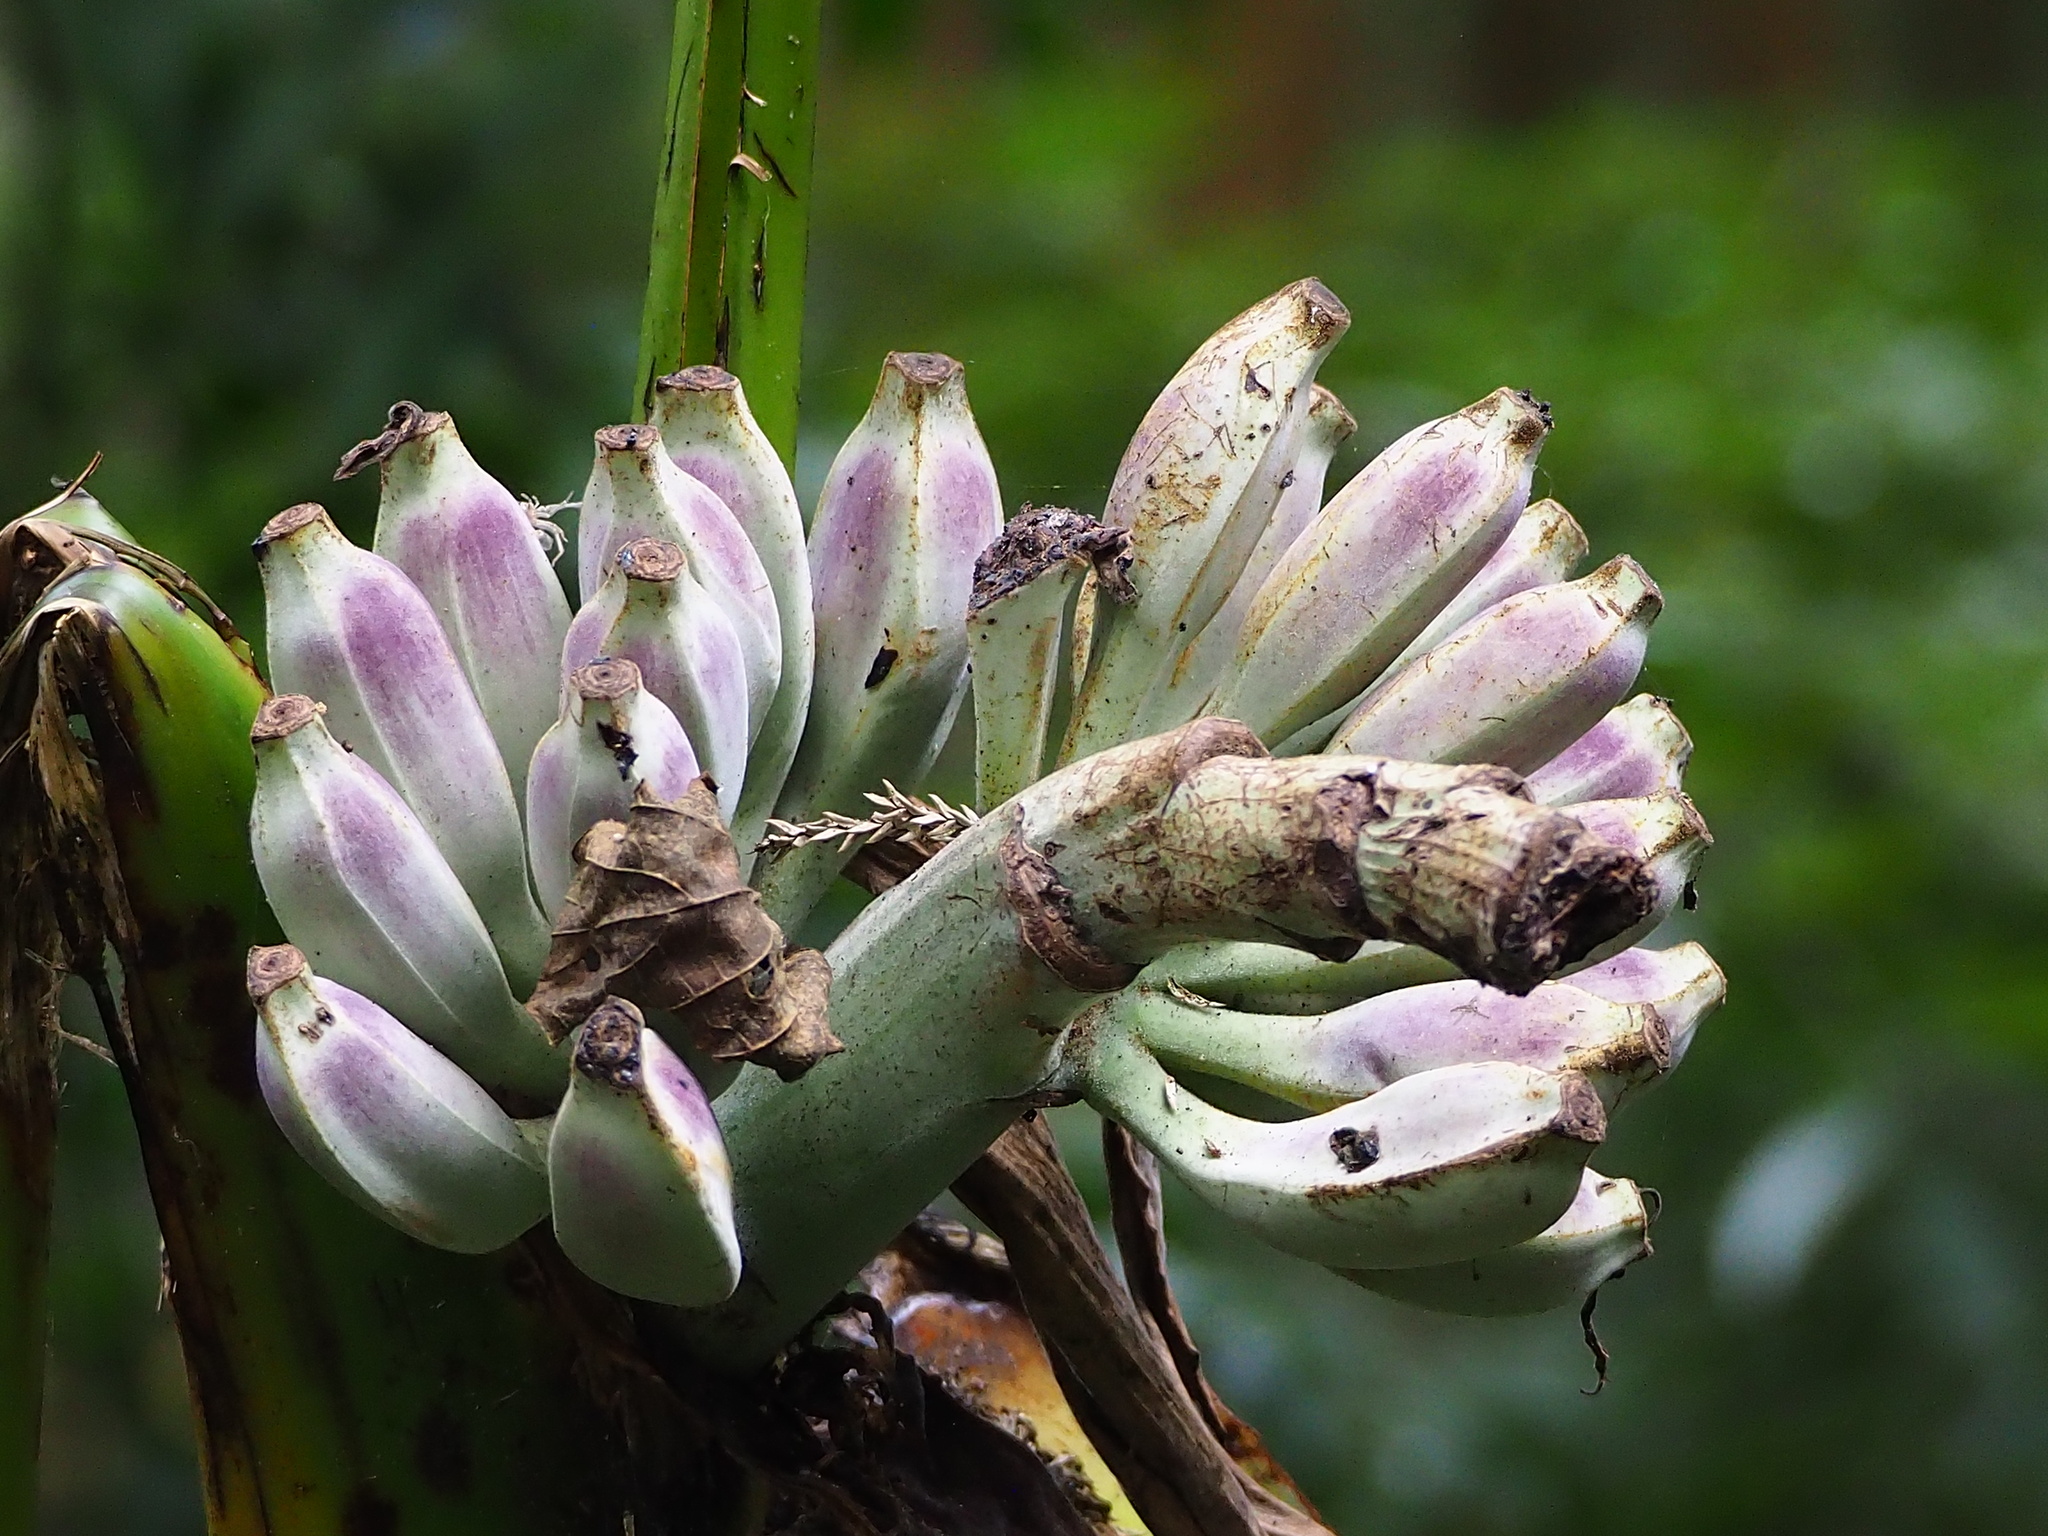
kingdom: Plantae
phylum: Tracheophyta
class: Liliopsida
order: Zingiberales
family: Musaceae
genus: Musa
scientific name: Musa itinerans
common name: Yunnan banana
